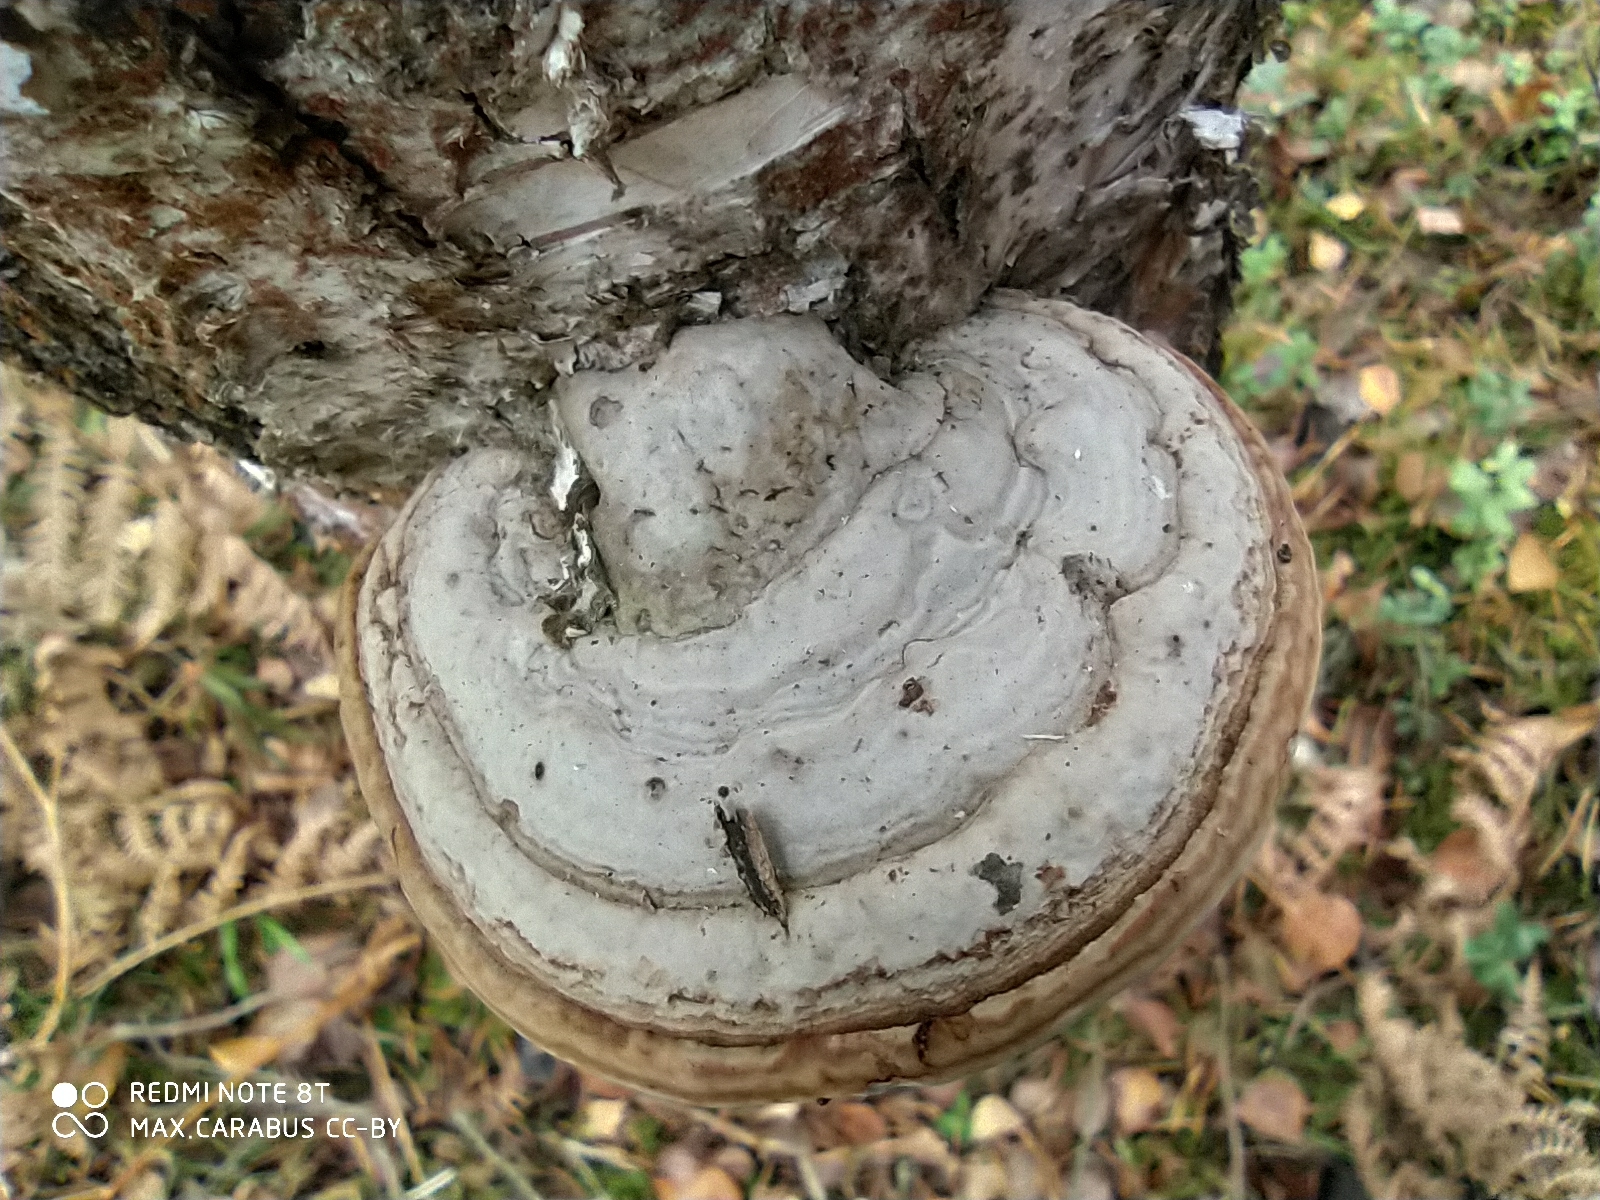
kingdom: Fungi
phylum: Basidiomycota
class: Agaricomycetes
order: Polyporales
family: Polyporaceae
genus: Fomes
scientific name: Fomes fomentarius
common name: Hoof fungus
